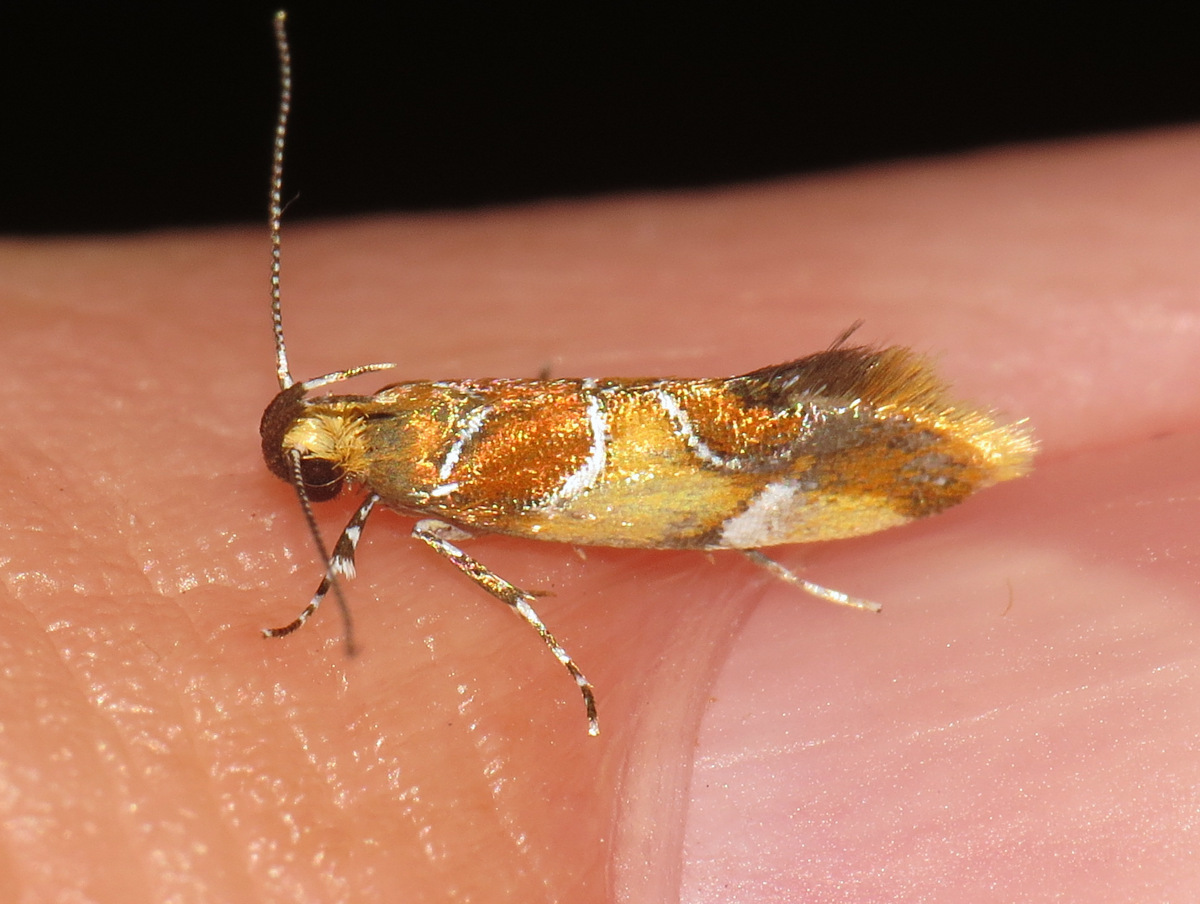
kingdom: Animalia
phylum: Arthropoda
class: Insecta
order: Lepidoptera
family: Oecophoridae
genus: Callima
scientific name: Callima argenticinctella
